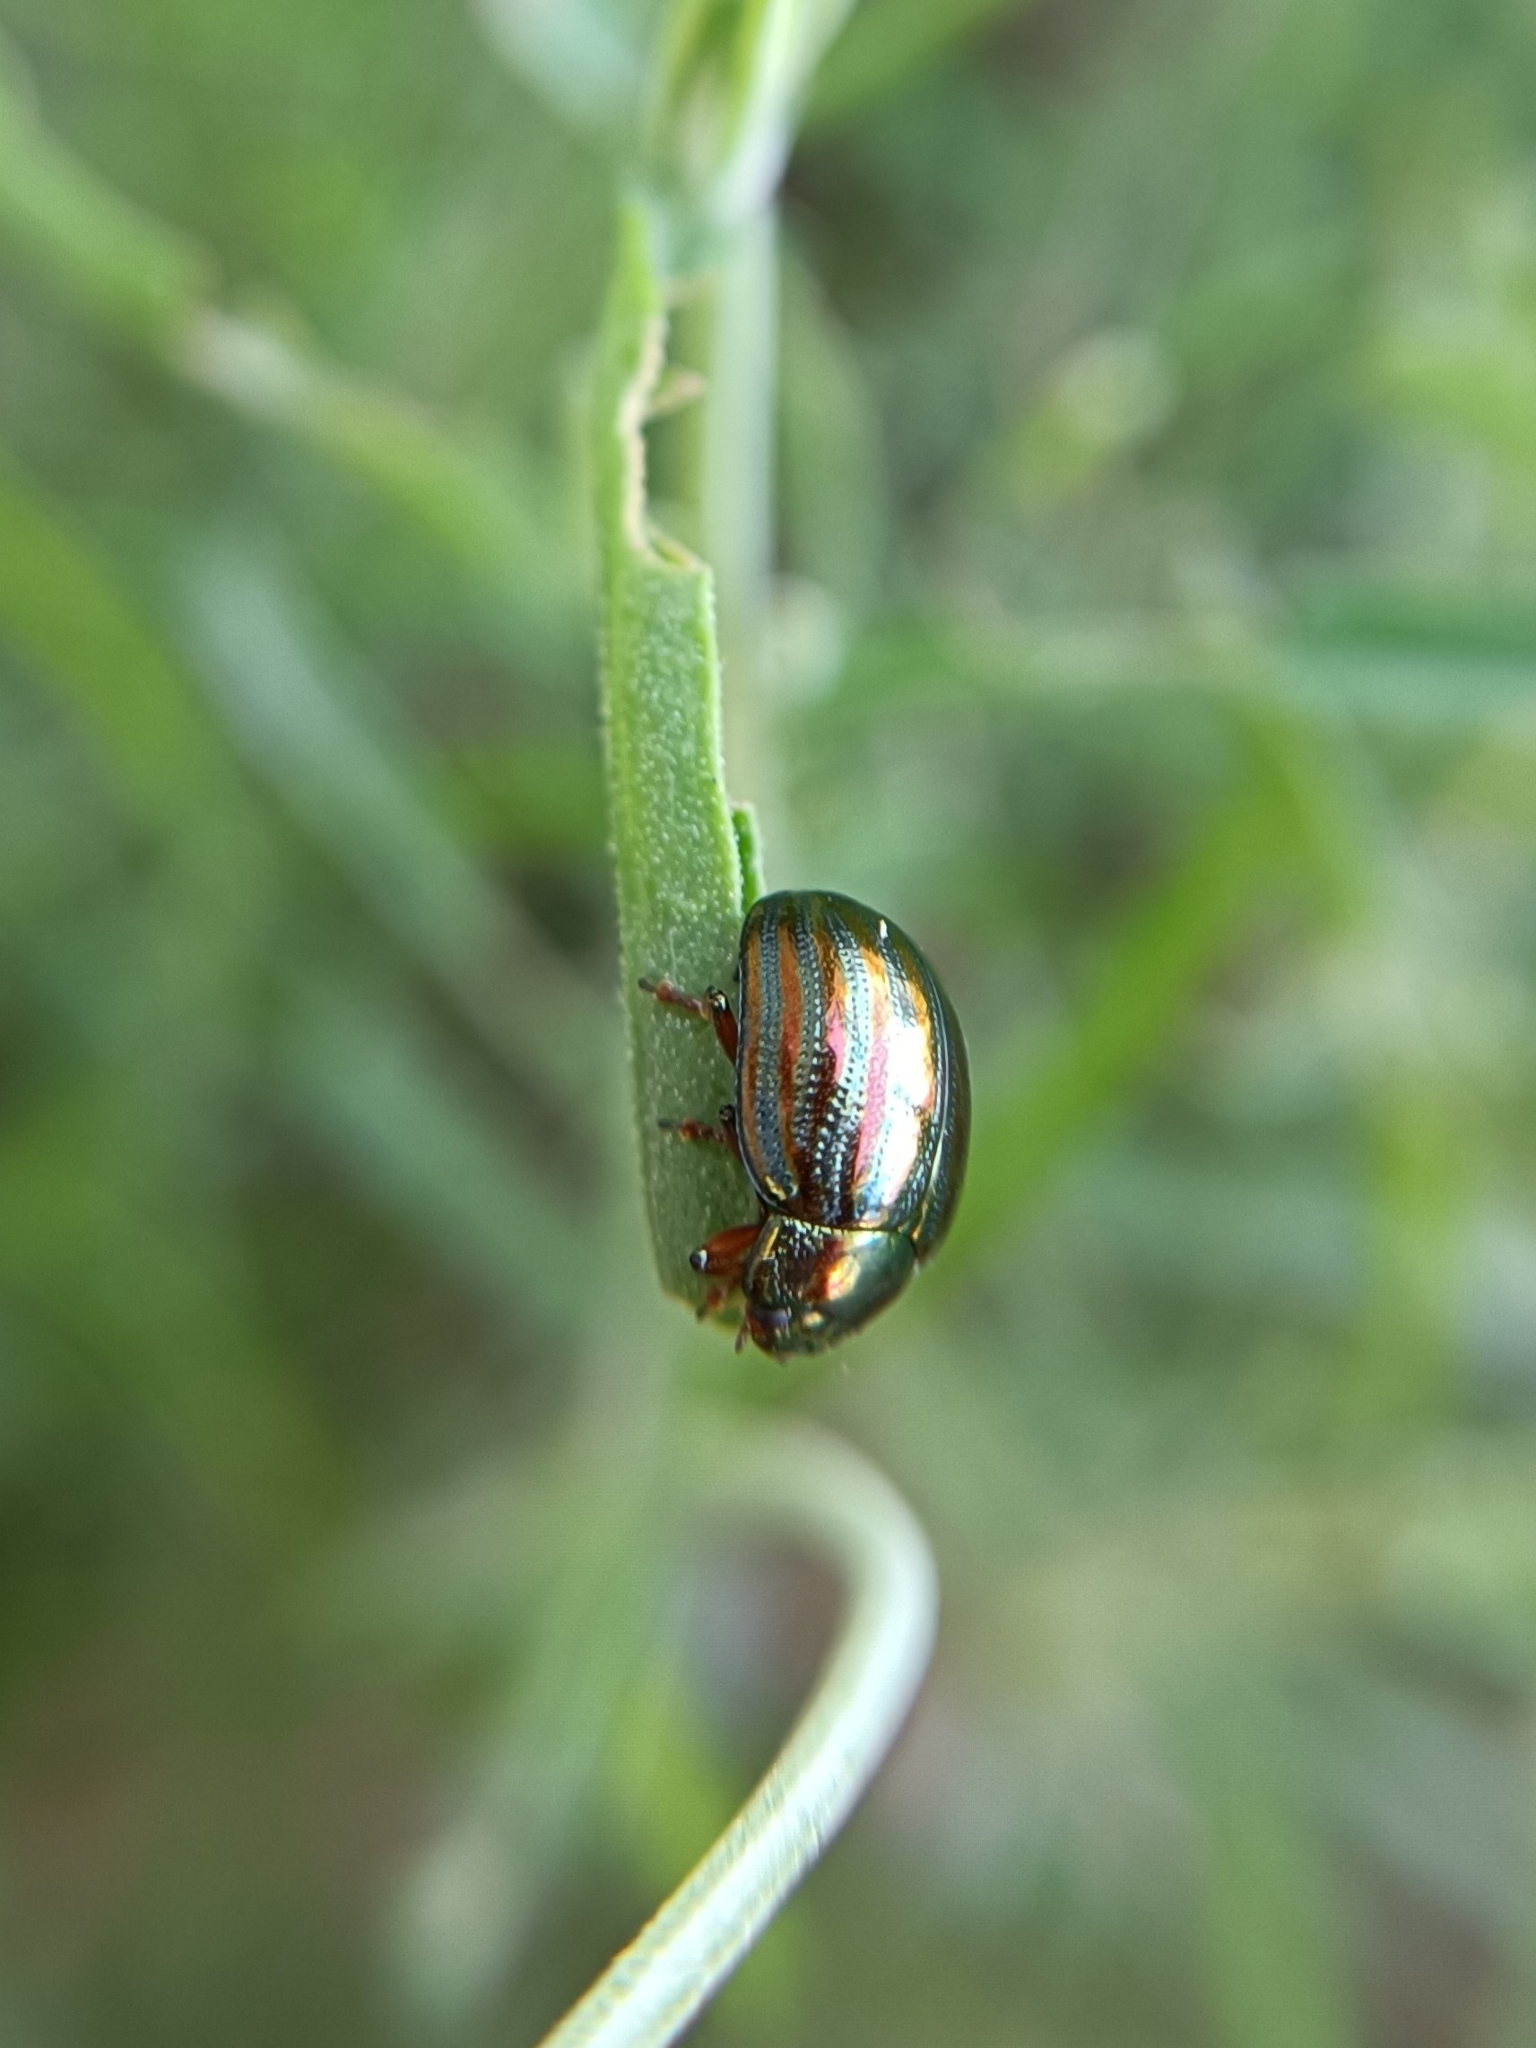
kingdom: Animalia
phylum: Arthropoda
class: Insecta
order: Coleoptera
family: Chrysomelidae
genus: Chrysolina
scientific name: Chrysolina americana
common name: Rosemary beetle
